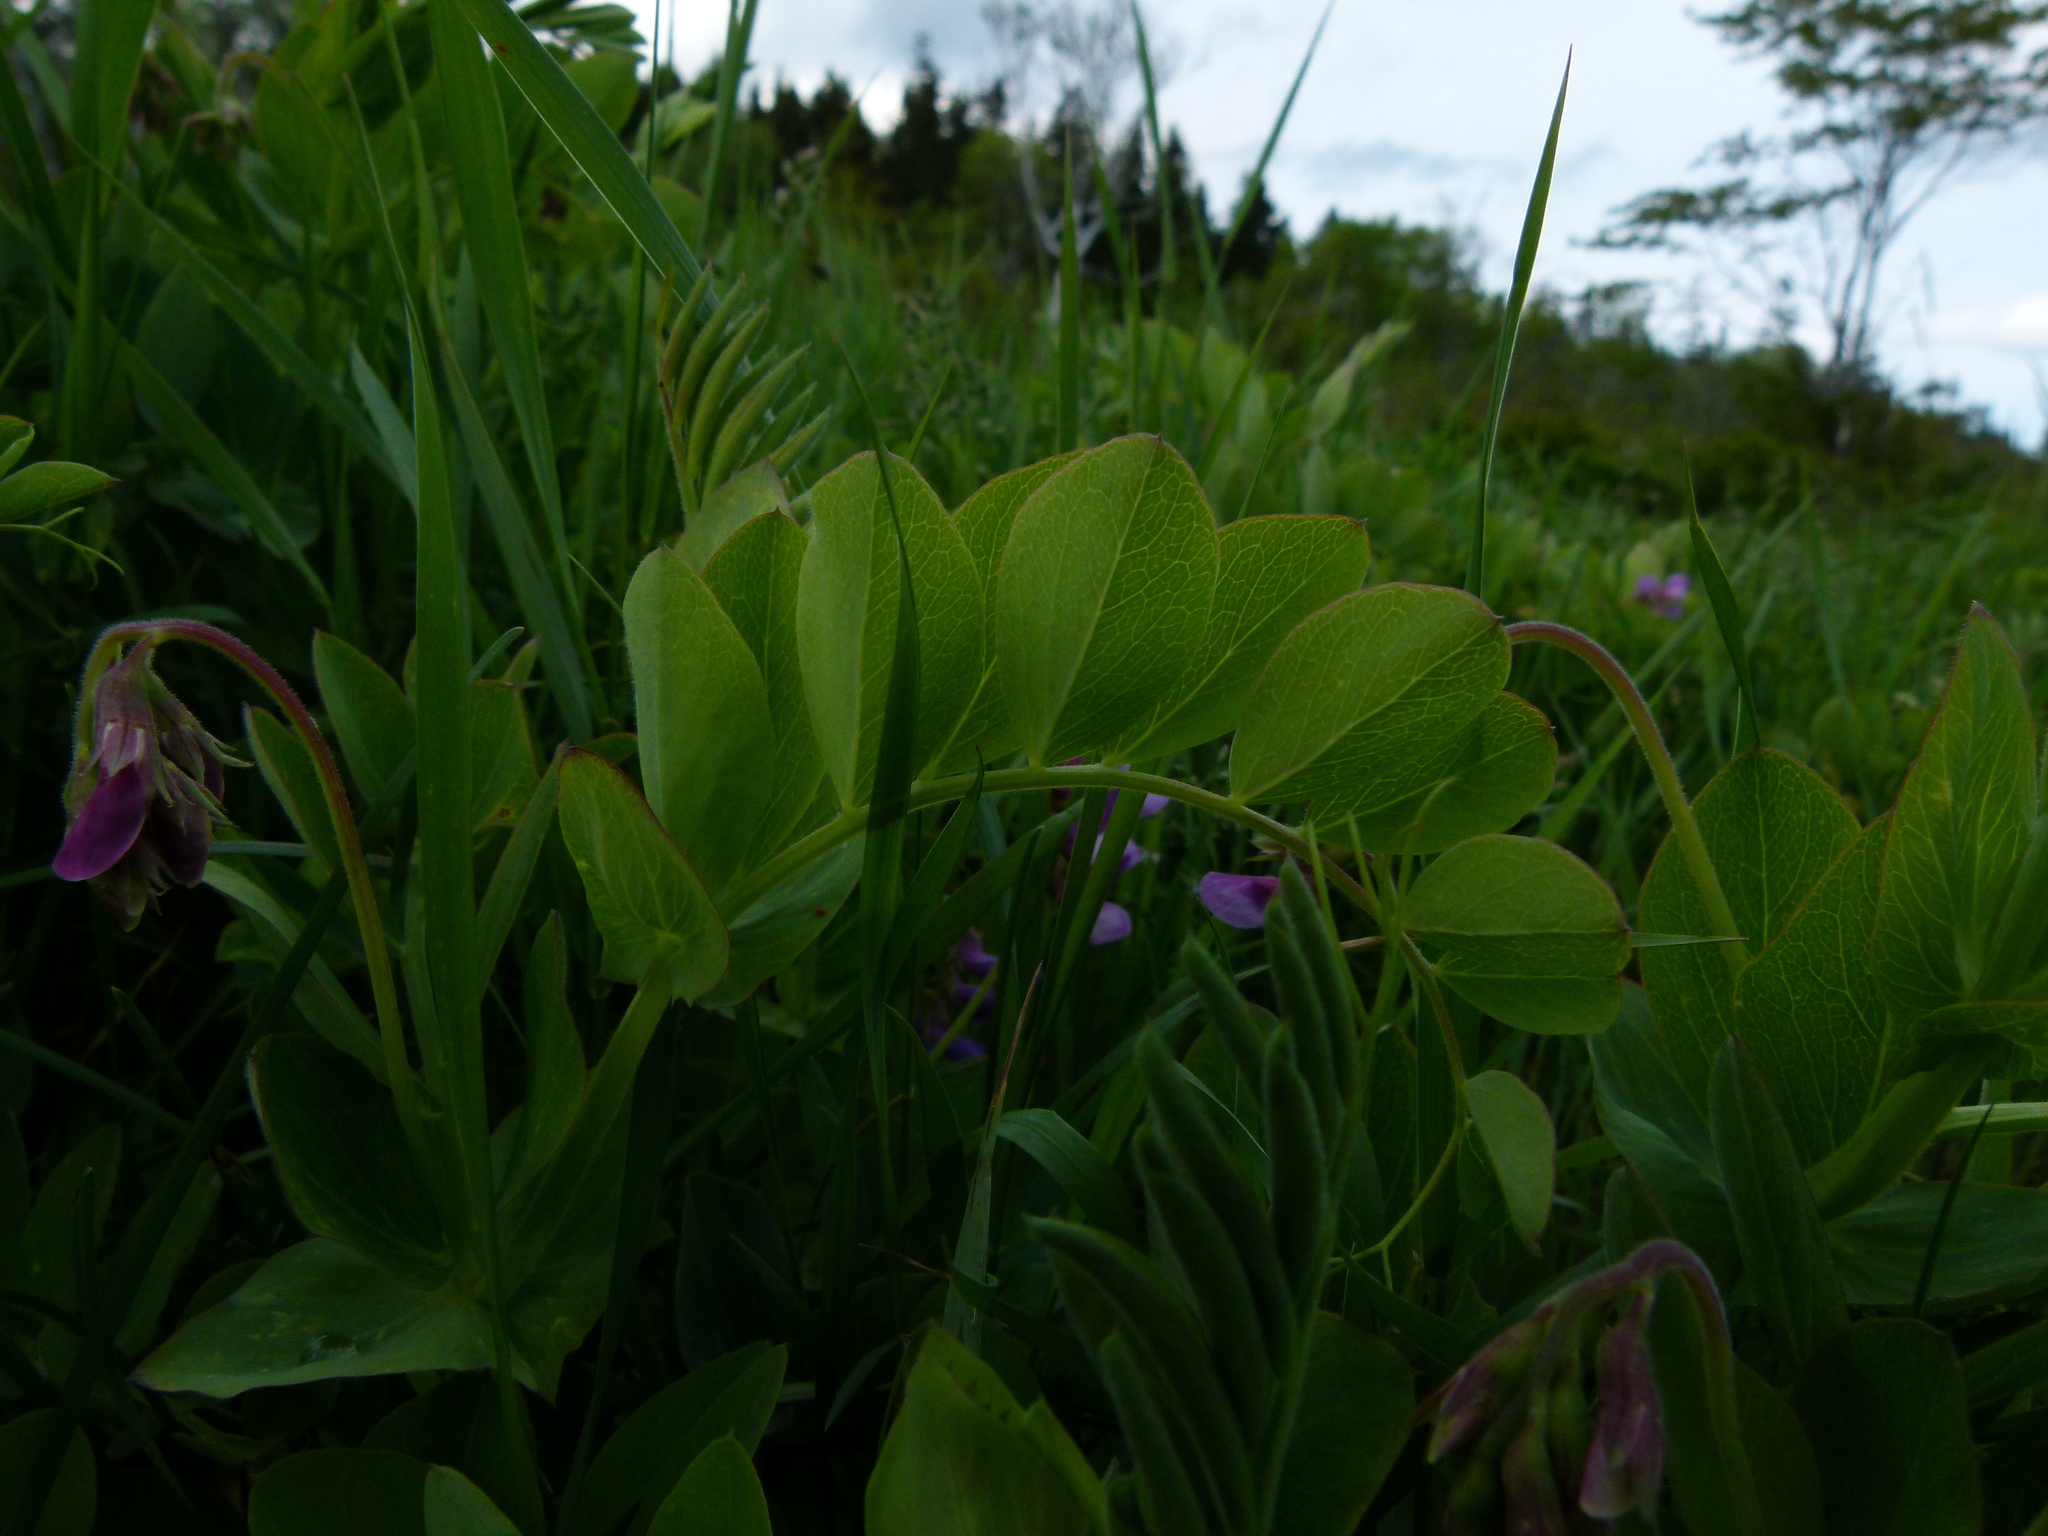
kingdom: Plantae
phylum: Tracheophyta
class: Magnoliopsida
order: Fabales
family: Fabaceae
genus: Lathyrus
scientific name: Lathyrus japonicus
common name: Sea pea
